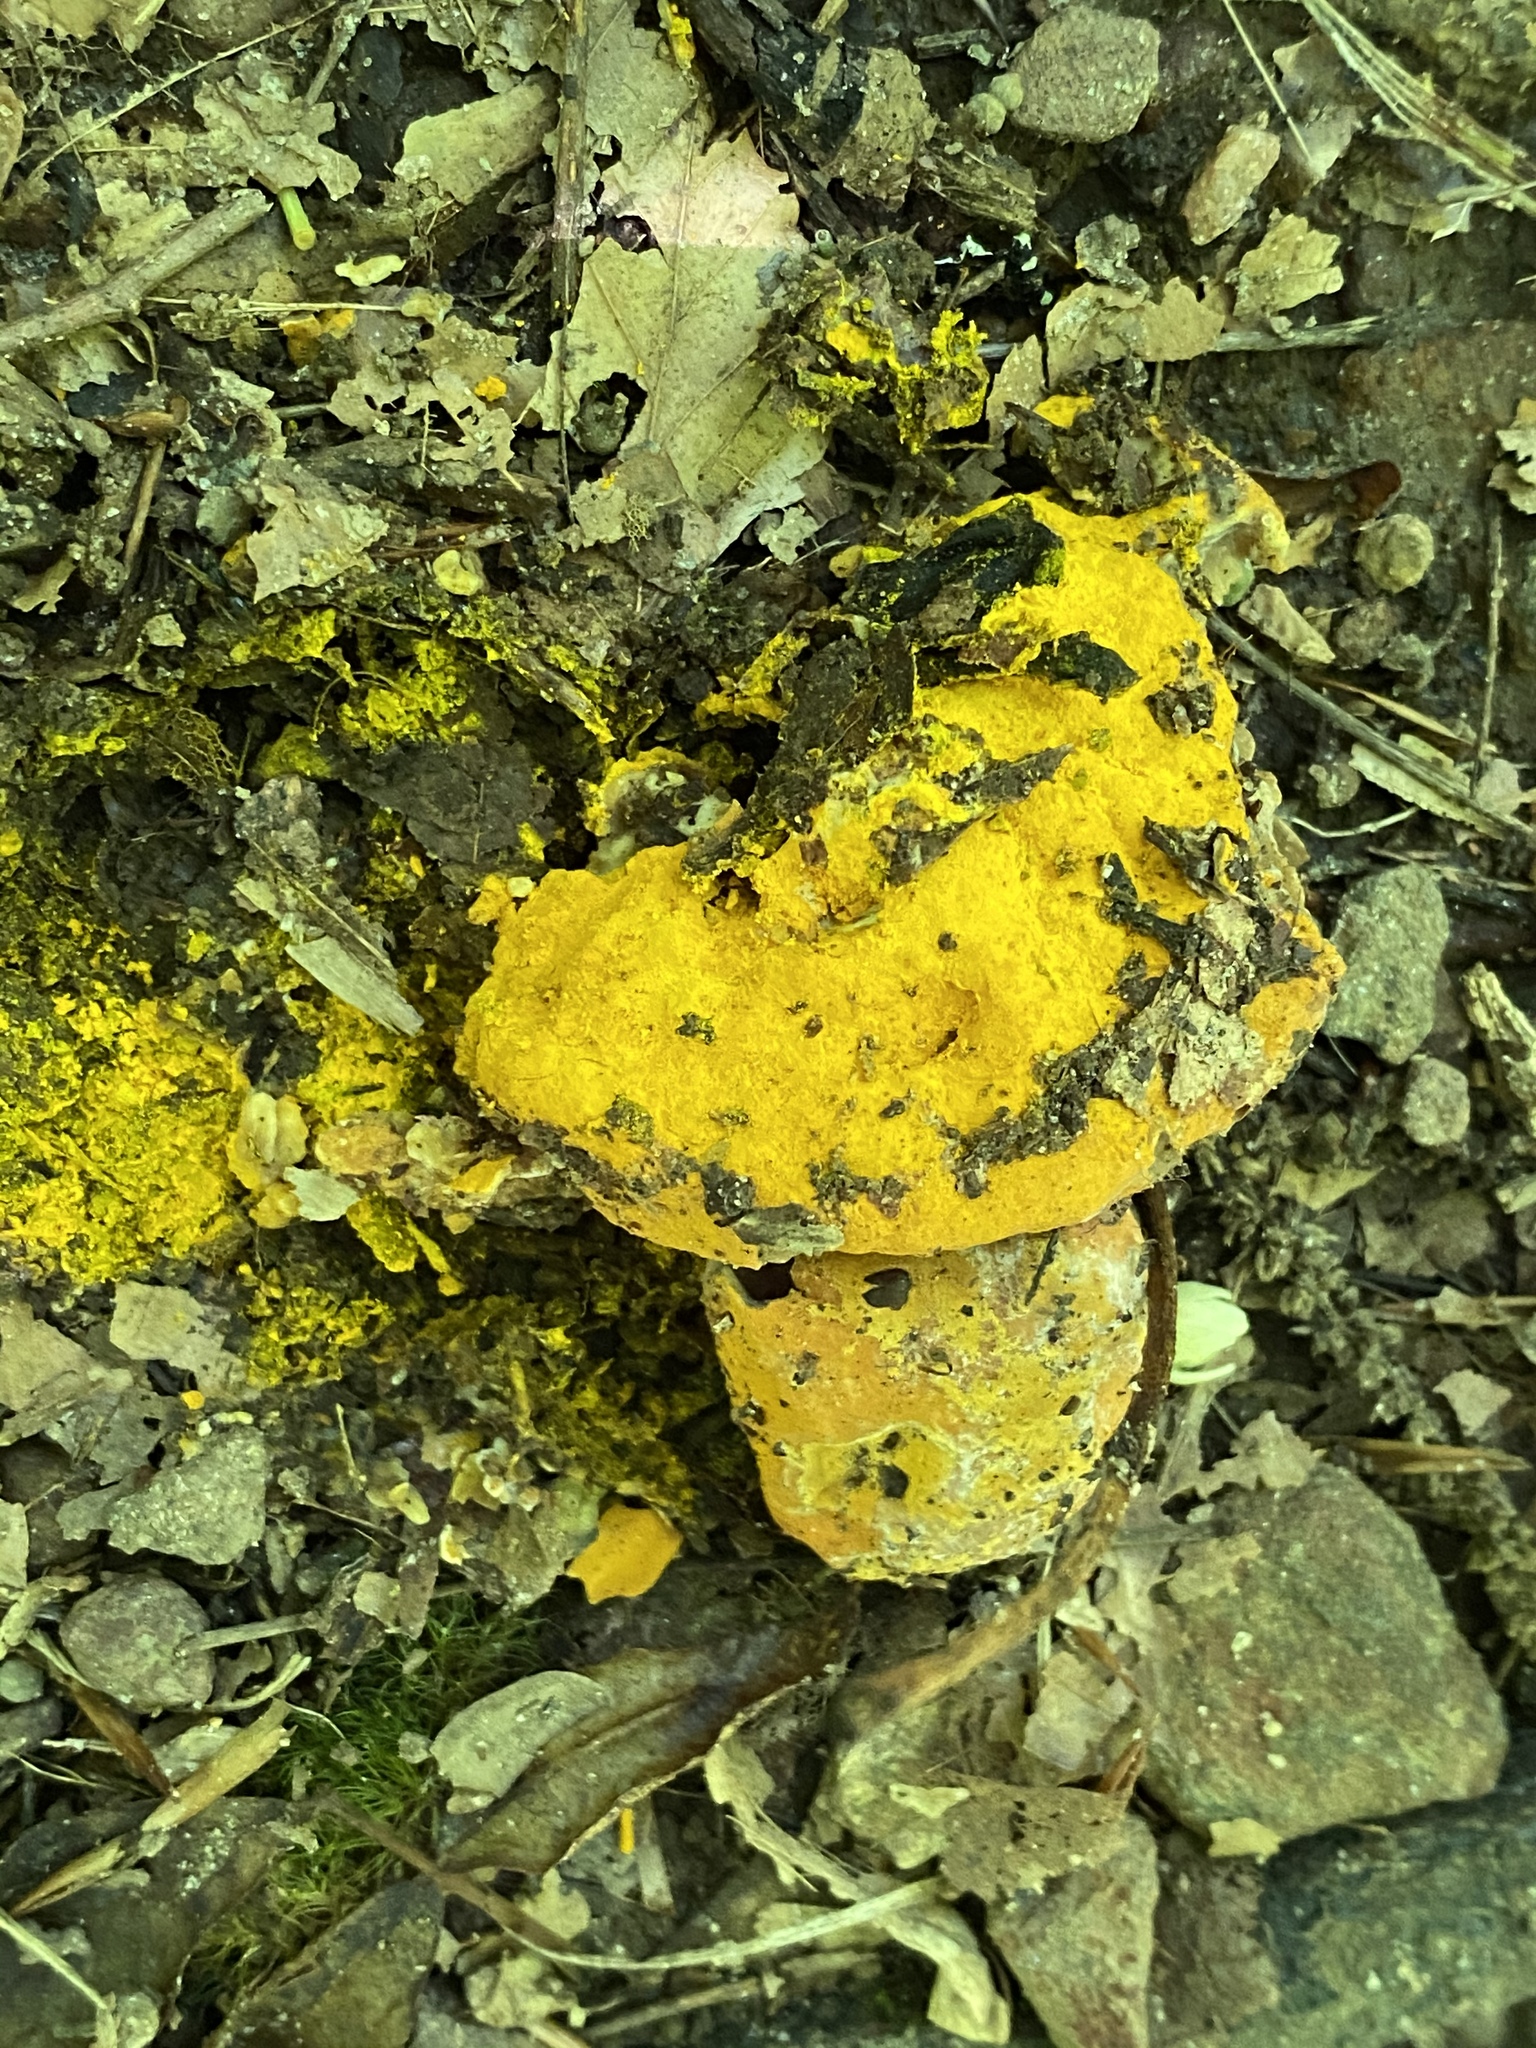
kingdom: Fungi
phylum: Ascomycota
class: Sordariomycetes
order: Hypocreales
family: Hypocreaceae
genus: Hypomyces
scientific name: Hypomyces chrysospermus
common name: Bolete mould
